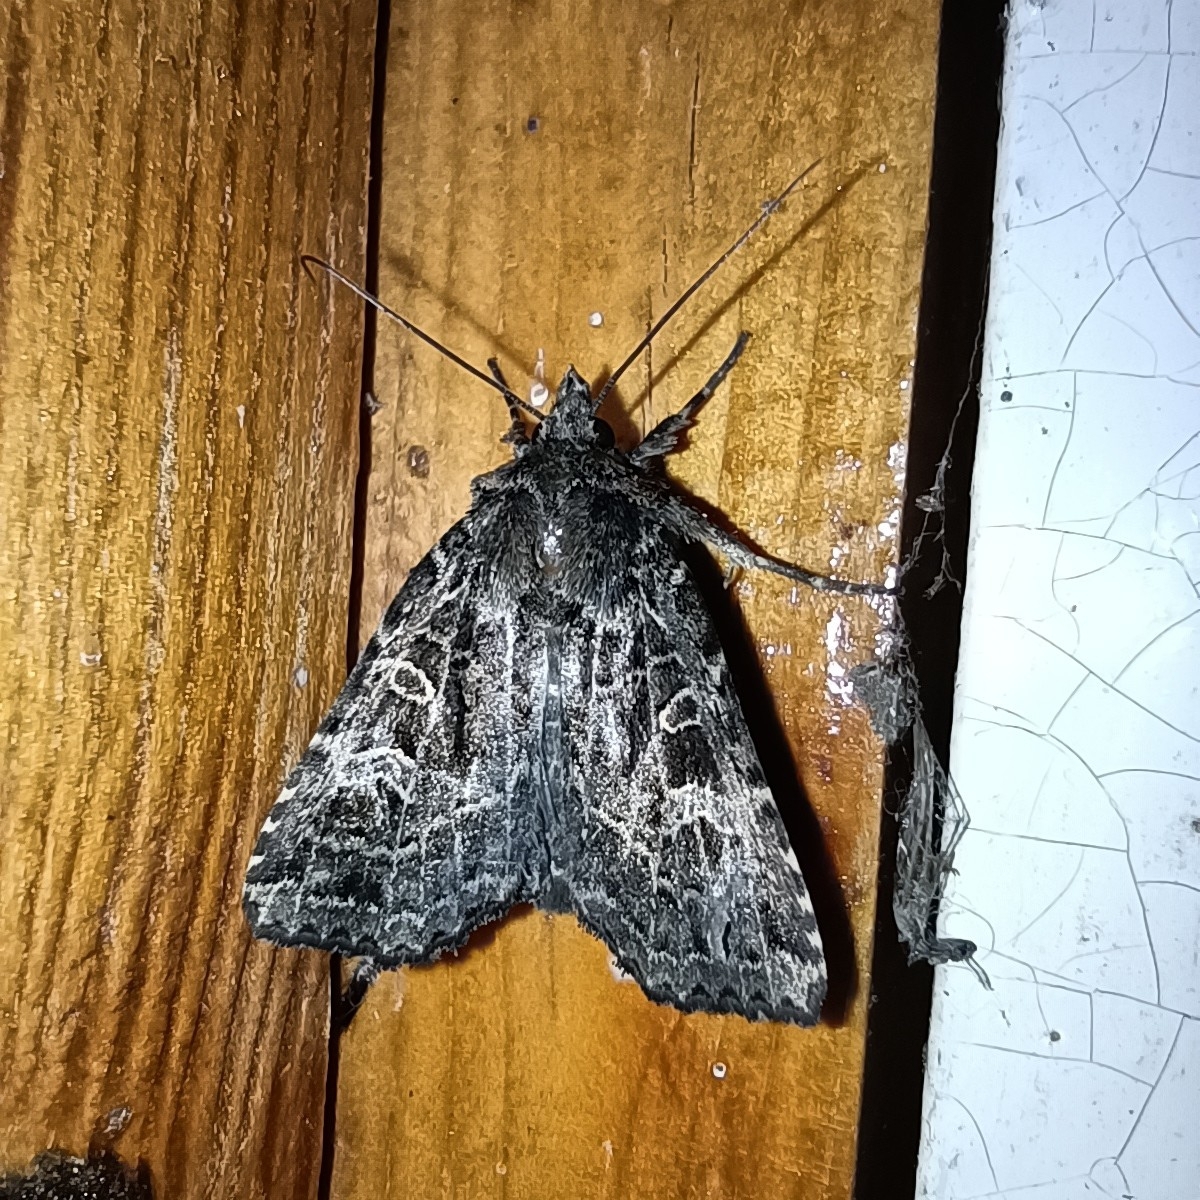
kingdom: Animalia
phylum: Arthropoda
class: Insecta
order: Lepidoptera
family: Noctuidae
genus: Naenia
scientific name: Naenia typica
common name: Gothic
